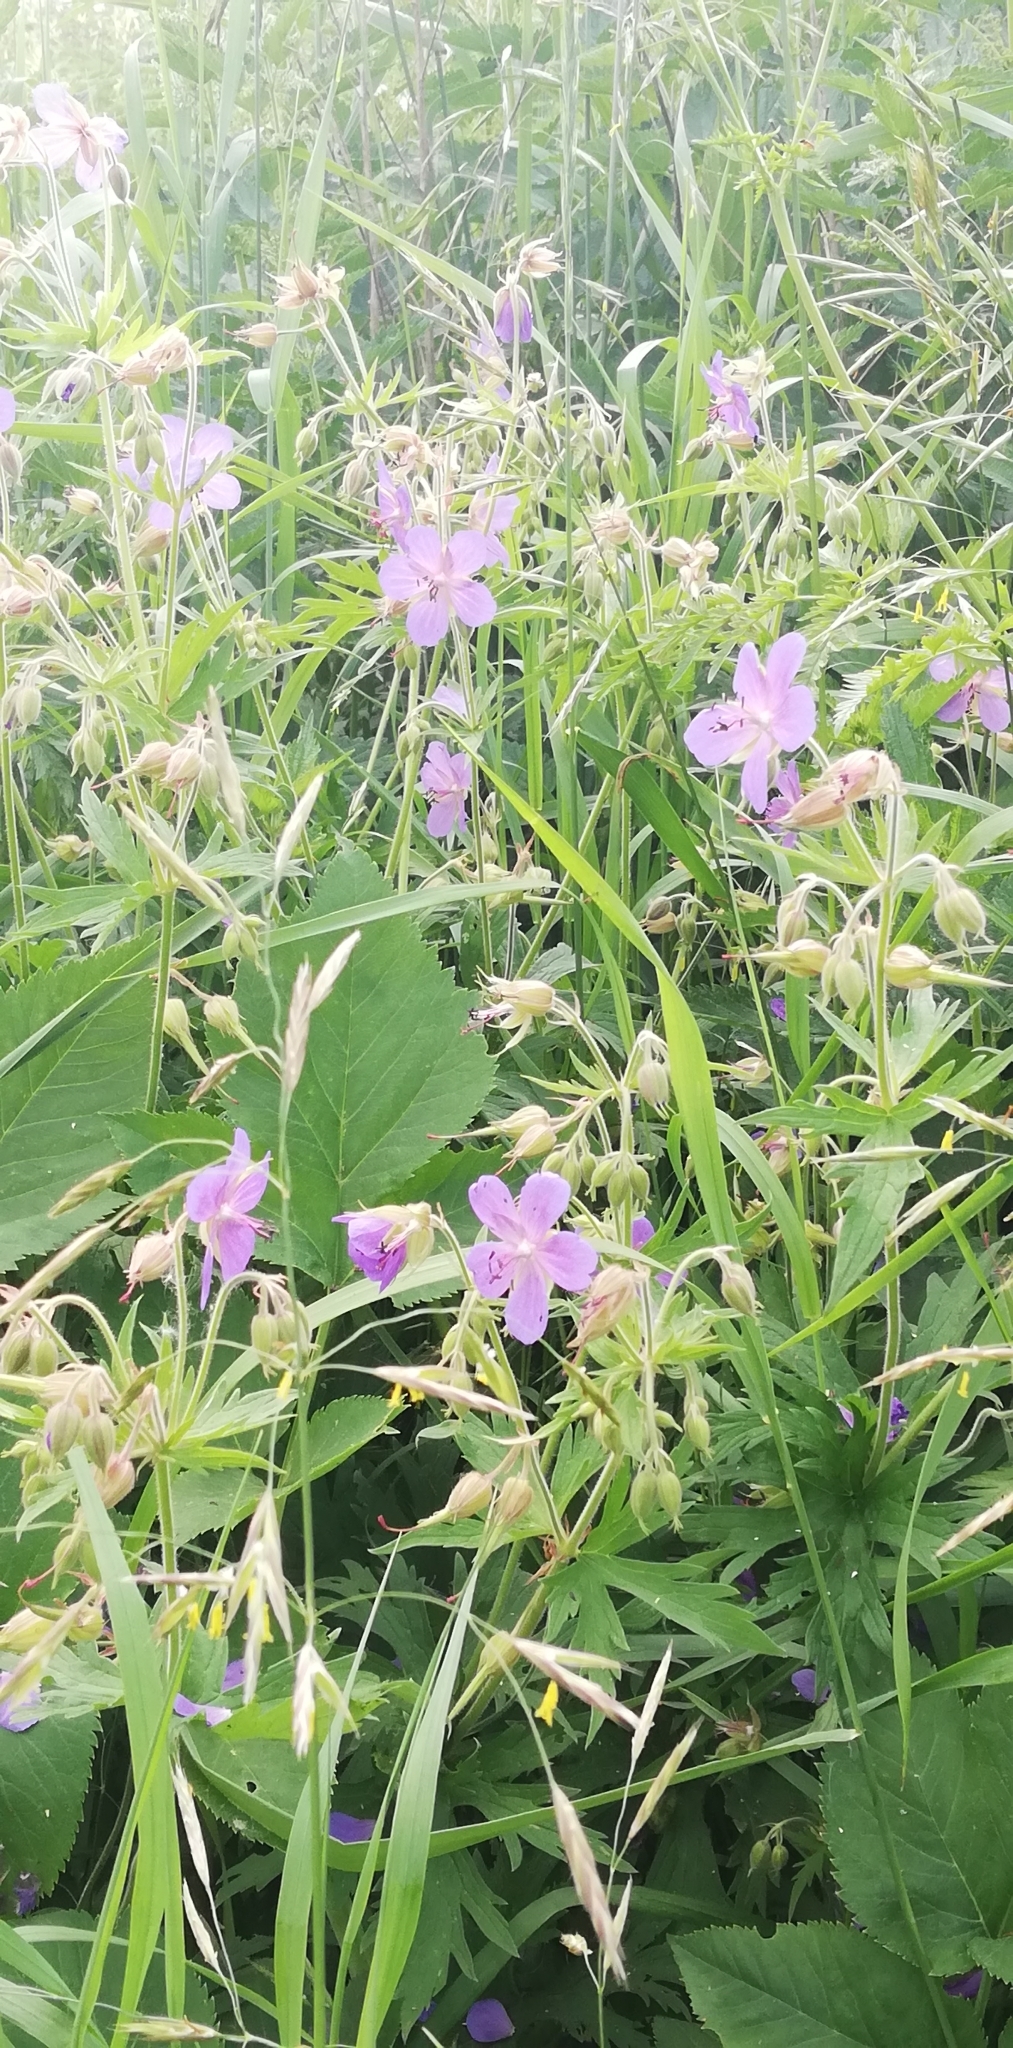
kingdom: Plantae
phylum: Tracheophyta
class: Magnoliopsida
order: Geraniales
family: Geraniaceae
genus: Geranium
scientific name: Geranium pratense
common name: Meadow crane's-bill
